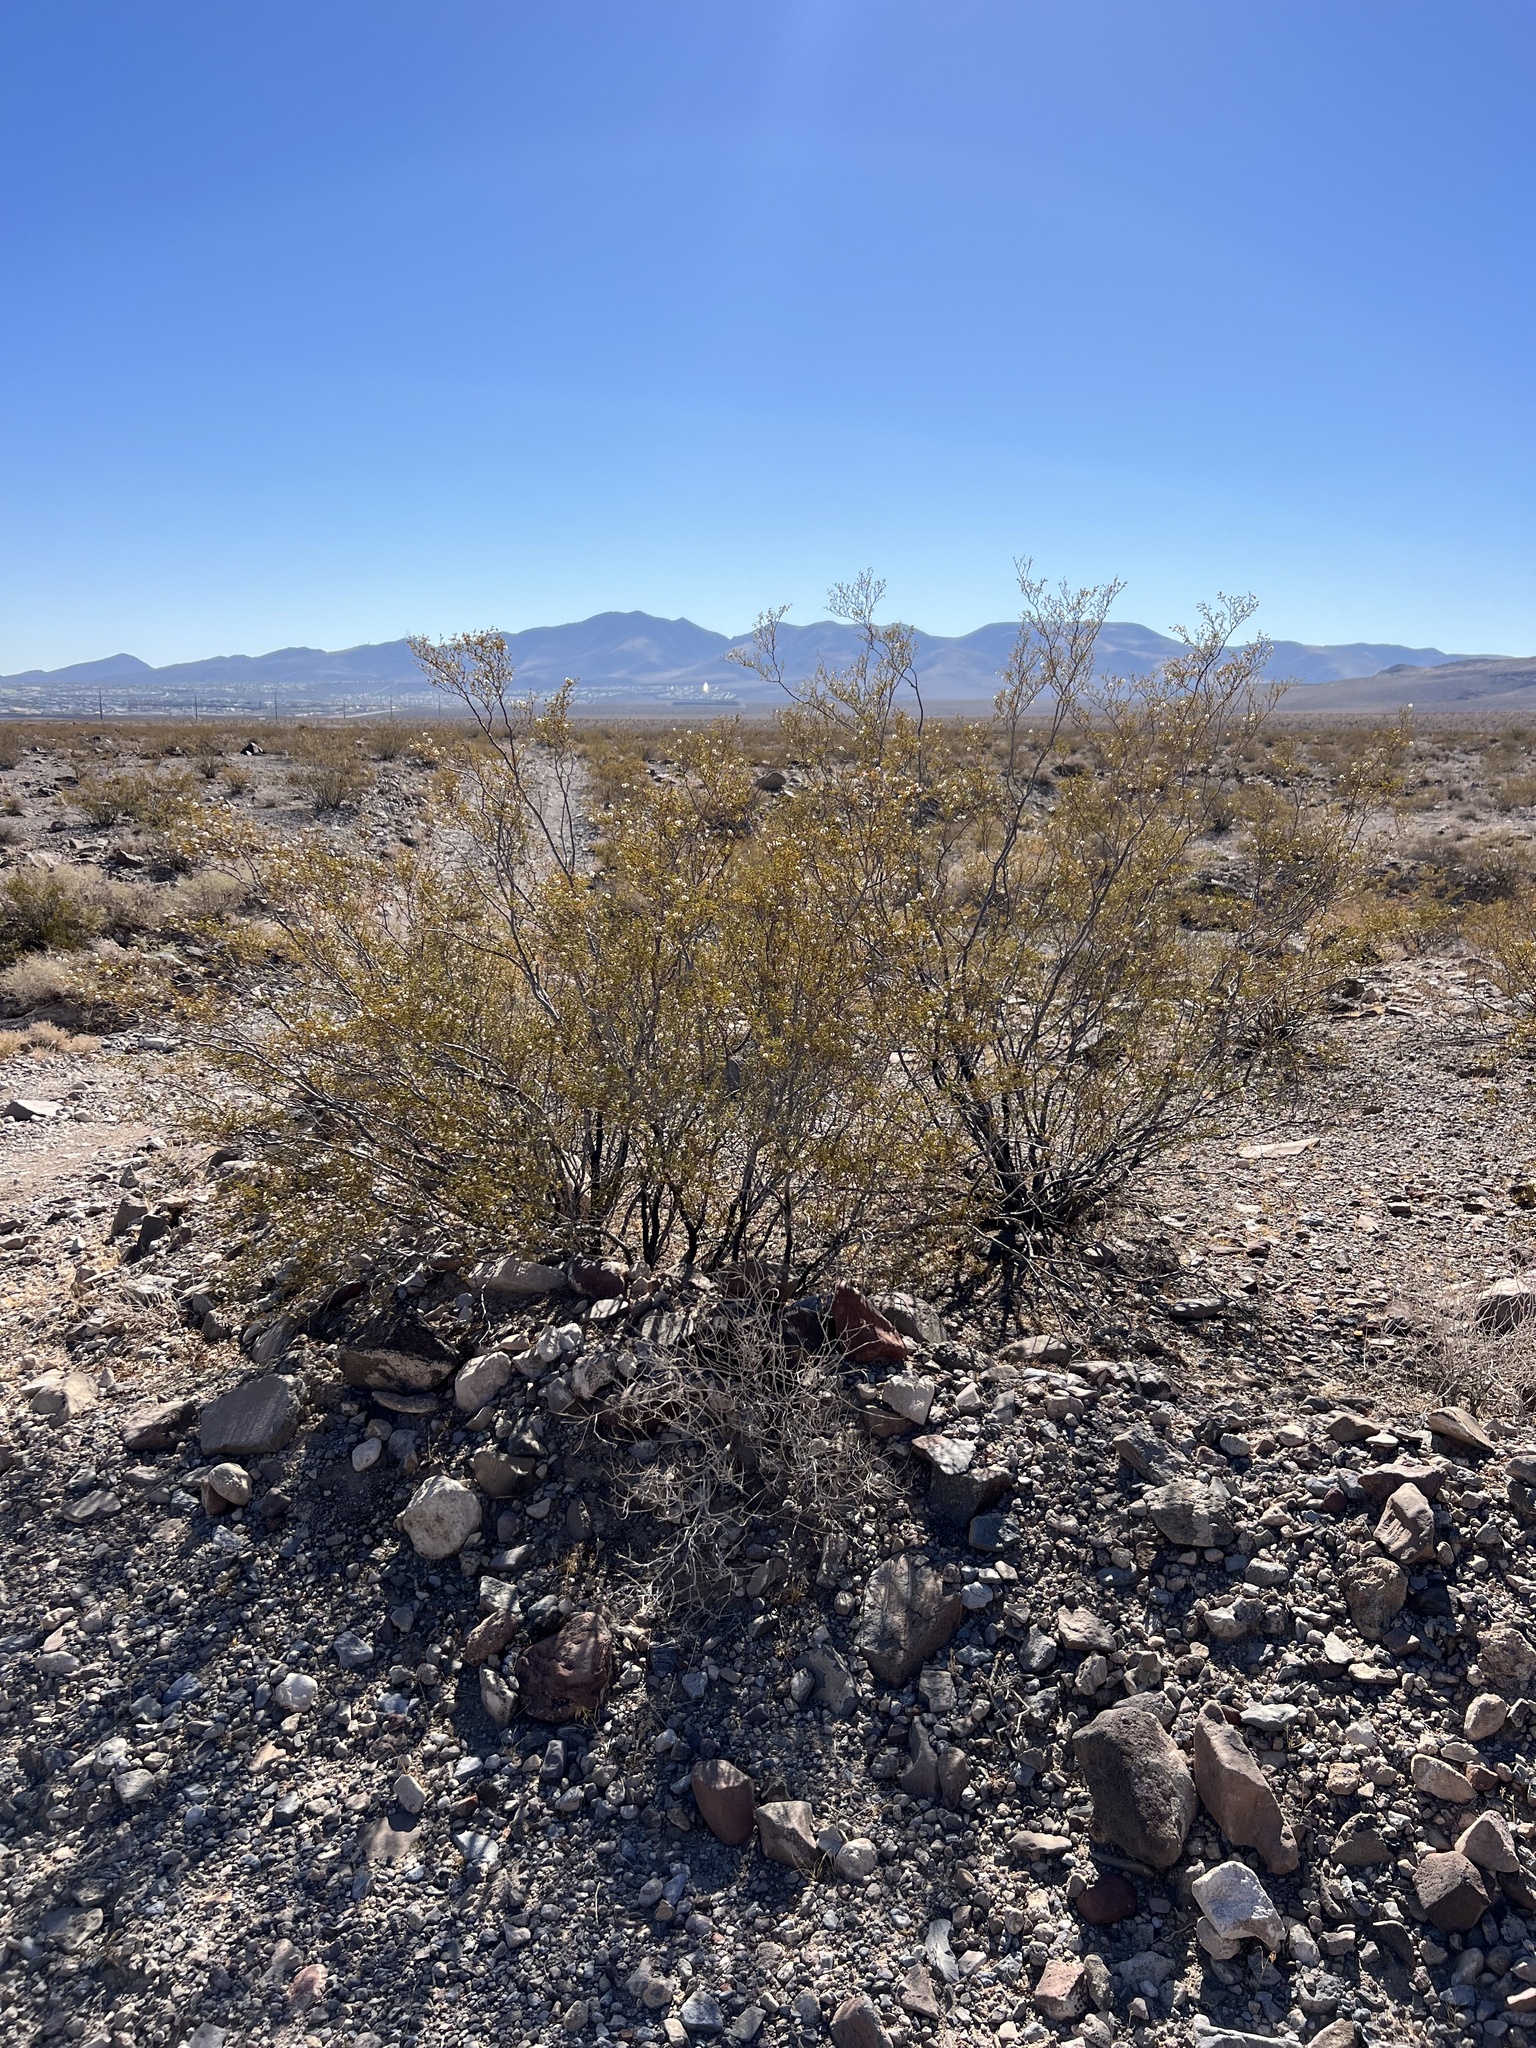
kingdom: Plantae
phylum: Tracheophyta
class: Magnoliopsida
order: Zygophyllales
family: Zygophyllaceae
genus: Larrea
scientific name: Larrea tridentata
